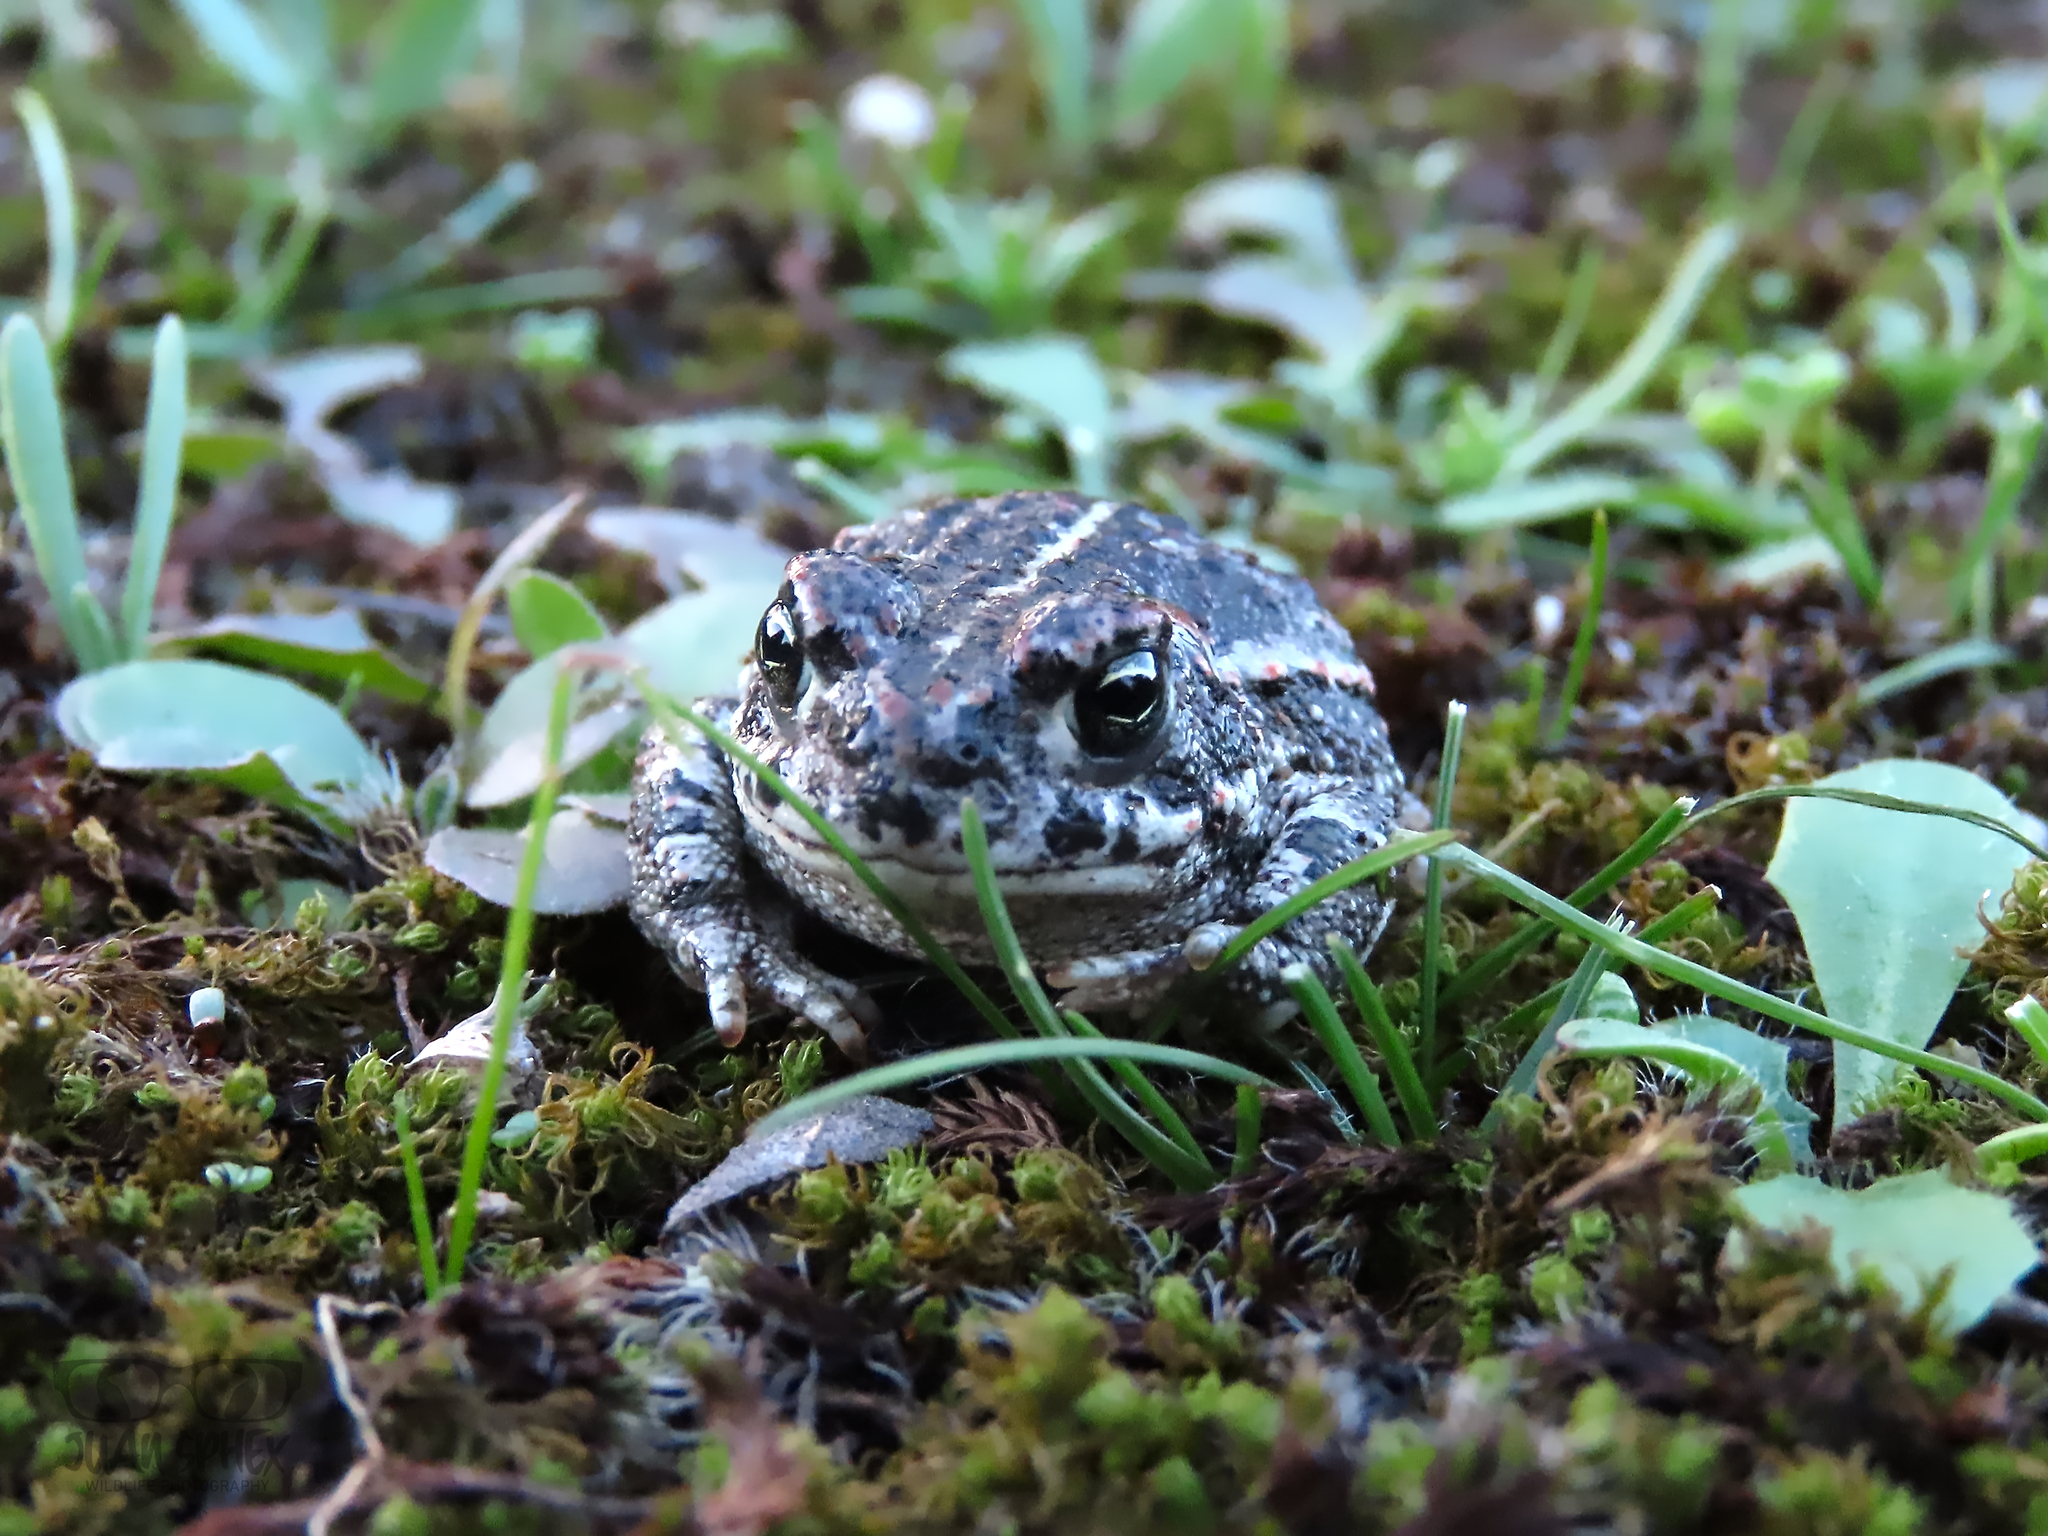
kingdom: Animalia
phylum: Chordata
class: Amphibia
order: Anura
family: Bufonidae
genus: Epidalea
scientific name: Epidalea calamita
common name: Natterjack toad
